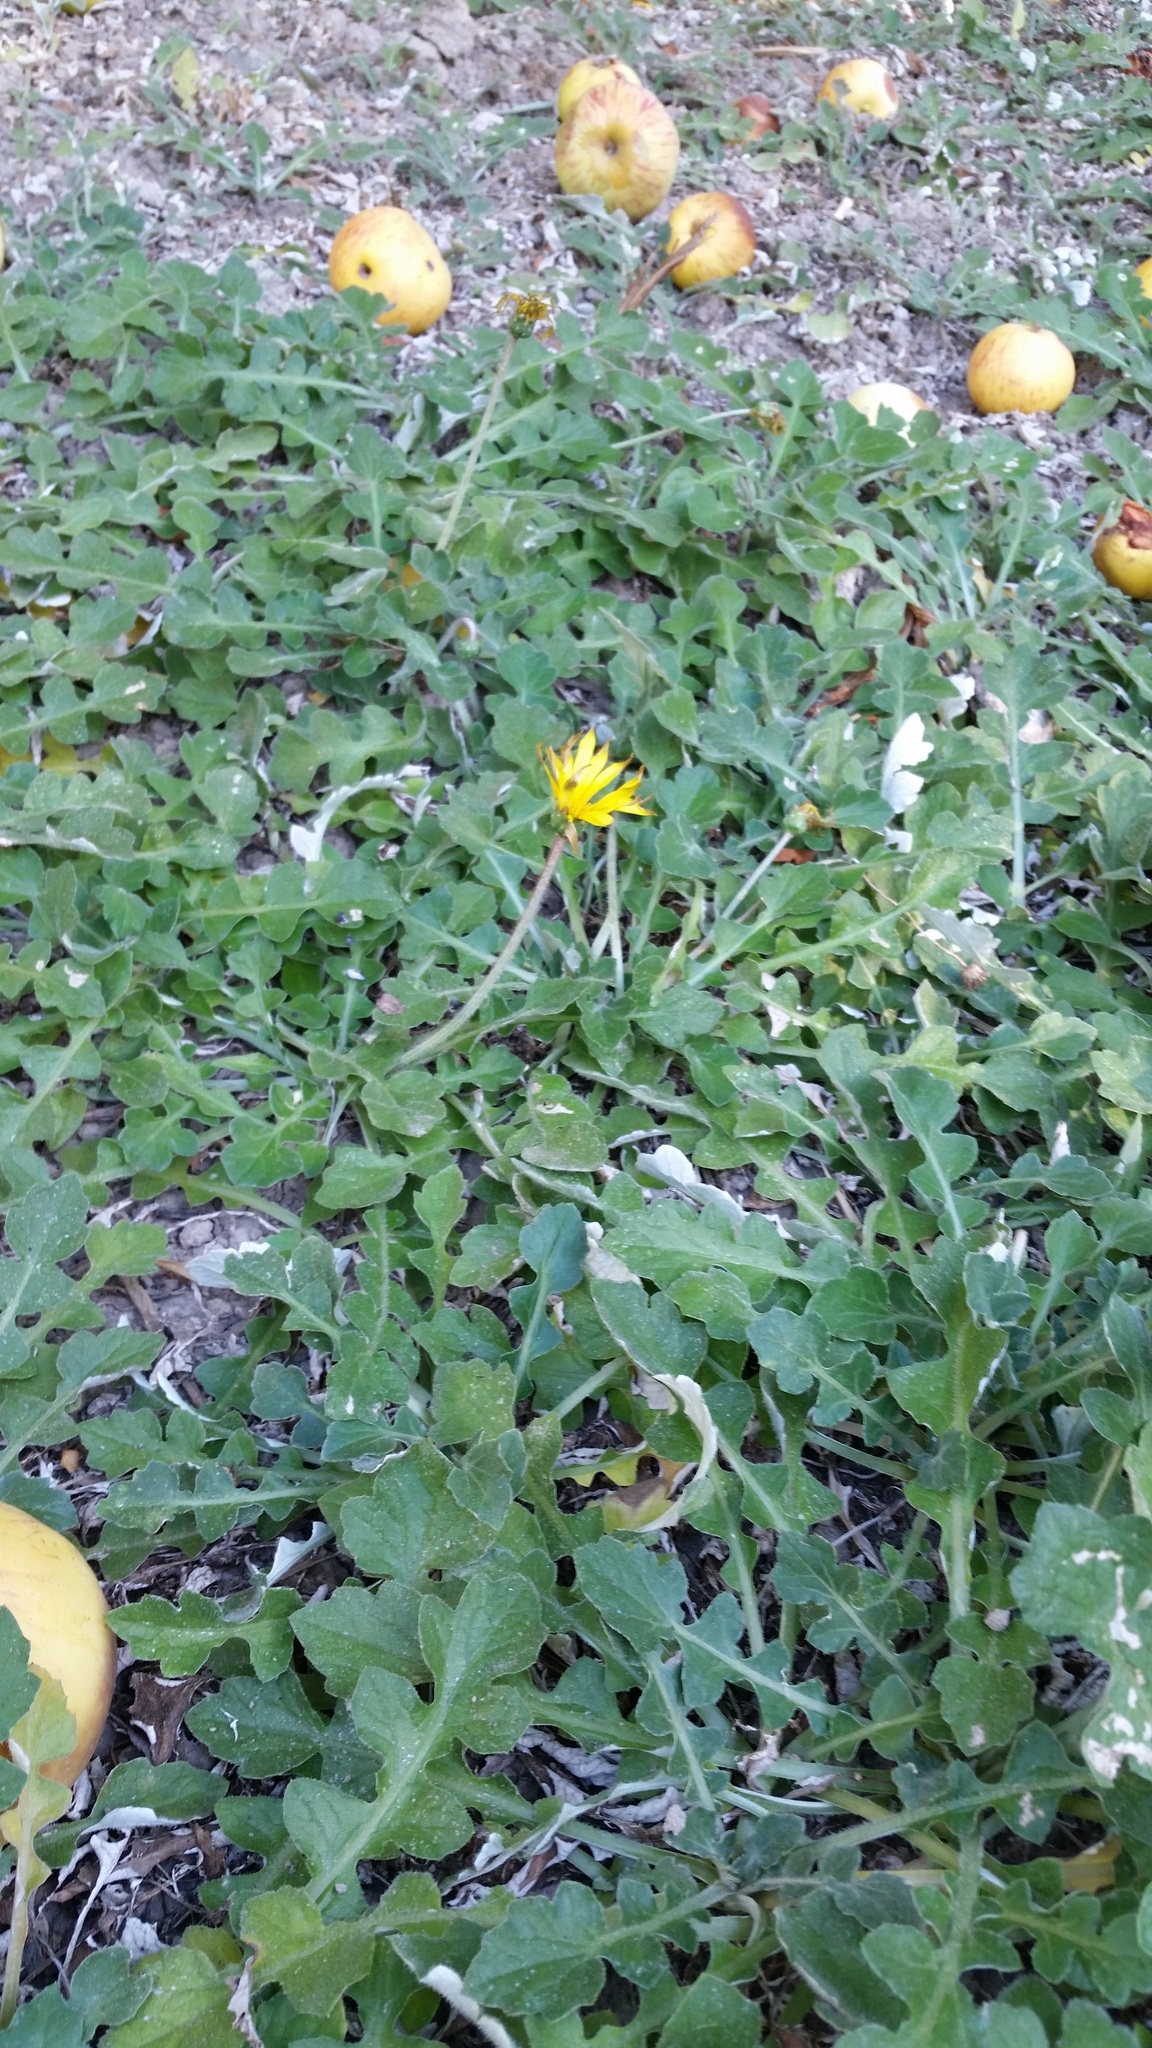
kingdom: Plantae
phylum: Tracheophyta
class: Magnoliopsida
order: Asterales
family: Asteraceae
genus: Arctotheca
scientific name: Arctotheca prostrata
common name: Capeweed
